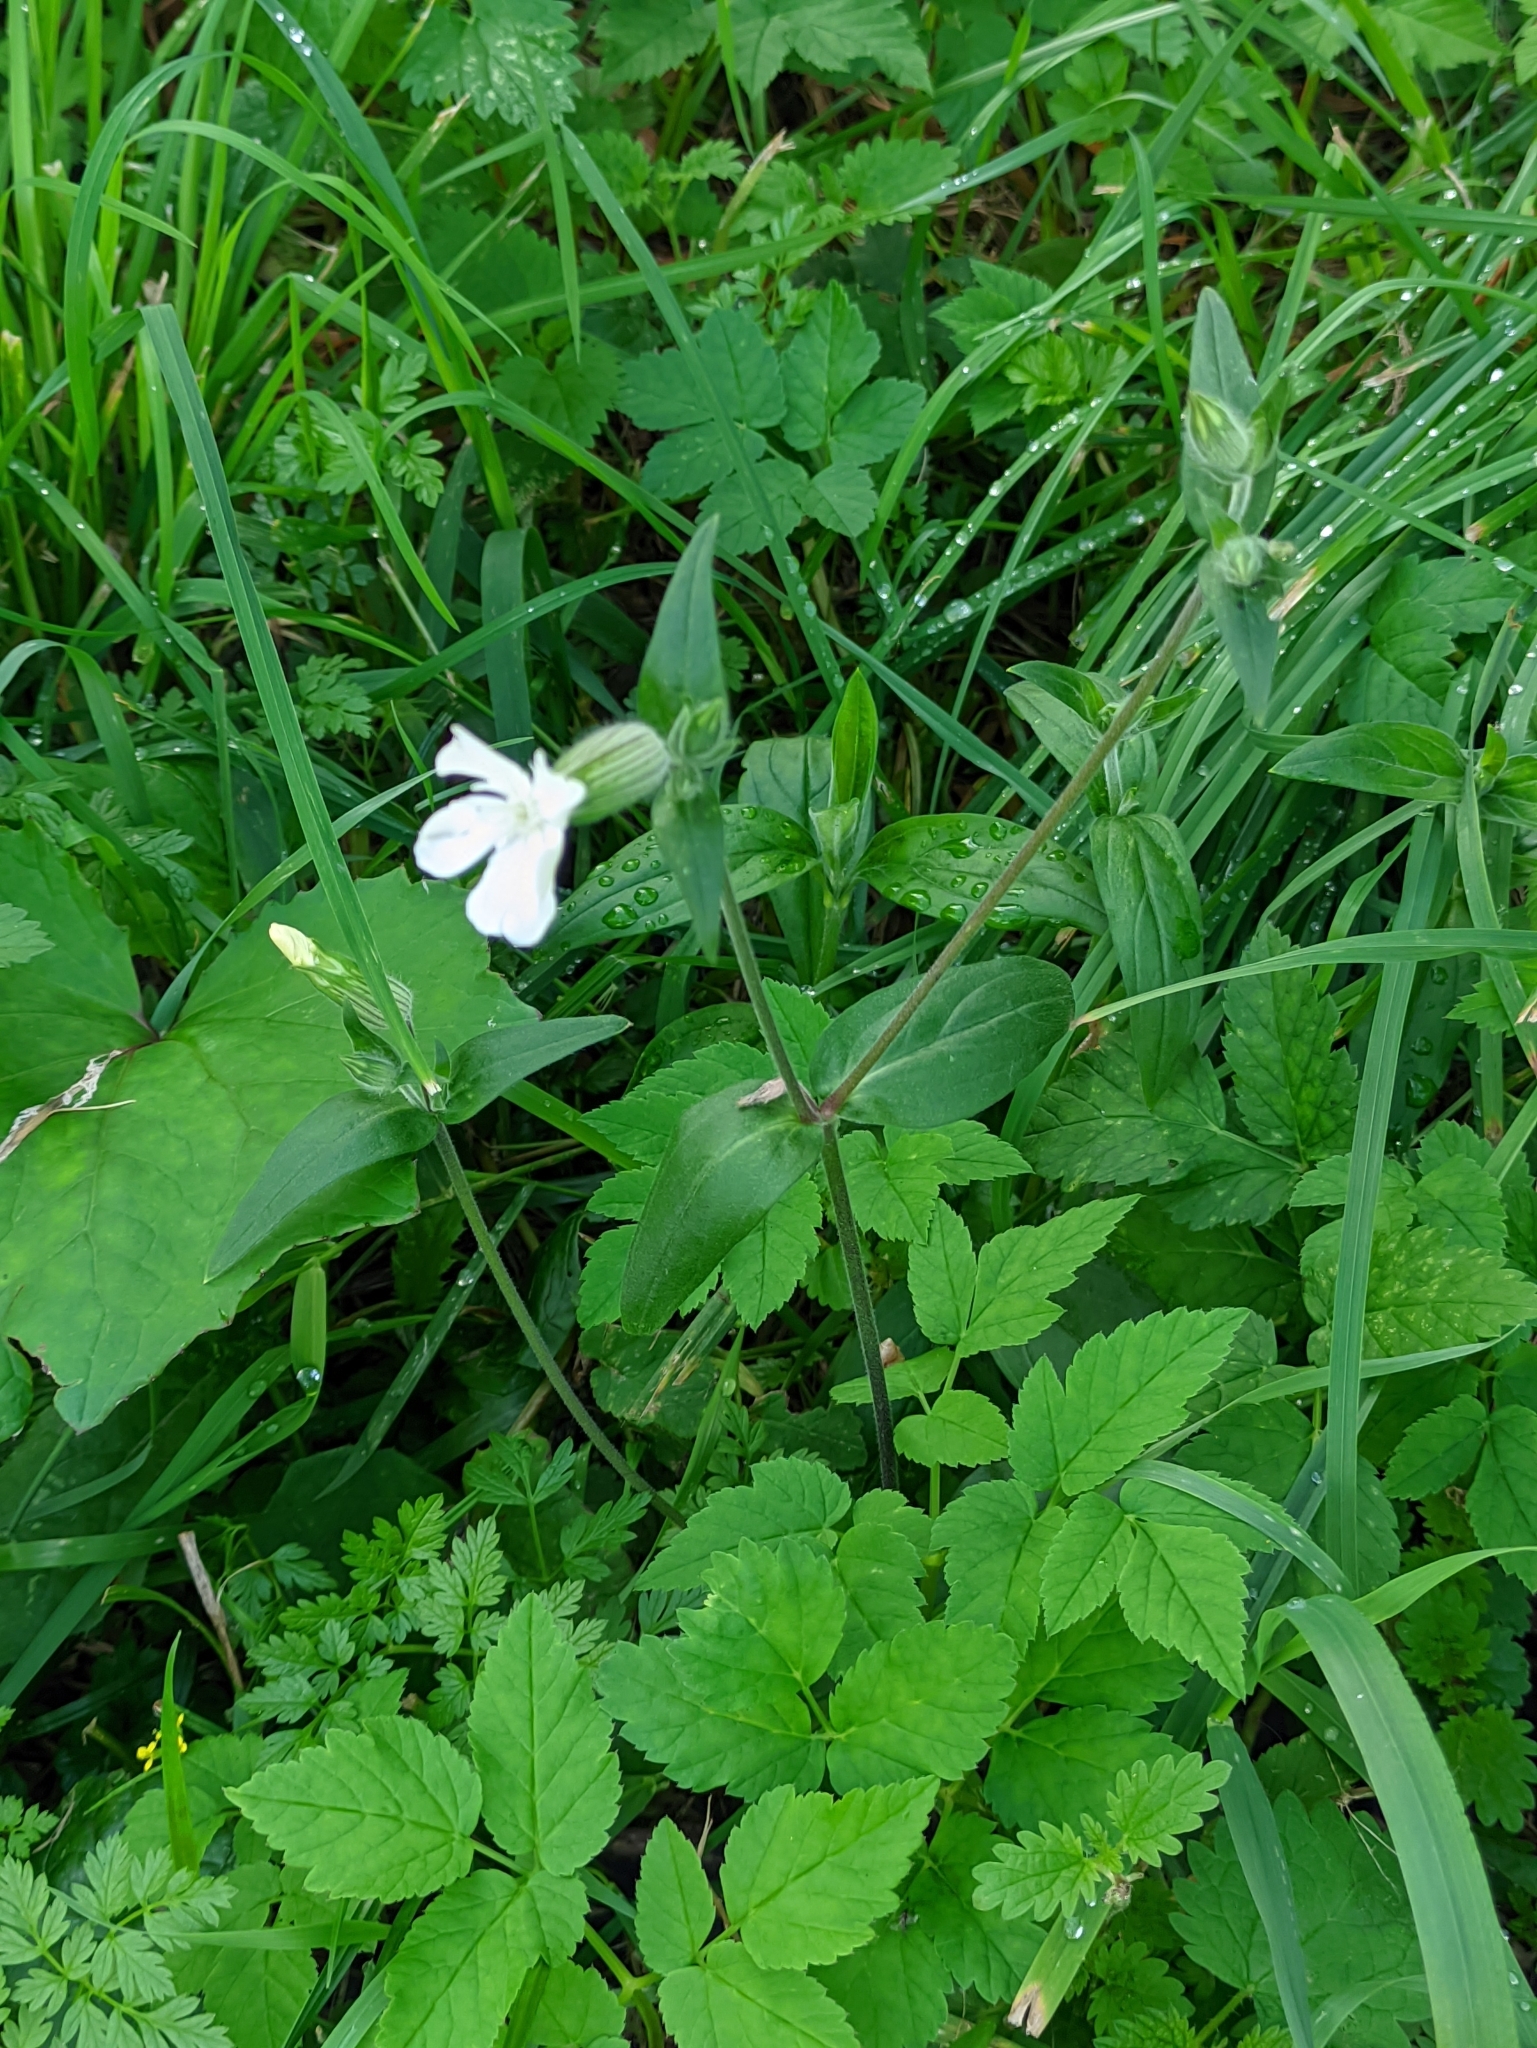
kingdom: Plantae
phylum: Tracheophyta
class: Magnoliopsida
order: Caryophyllales
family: Caryophyllaceae
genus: Silene
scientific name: Silene latifolia
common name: White campion
